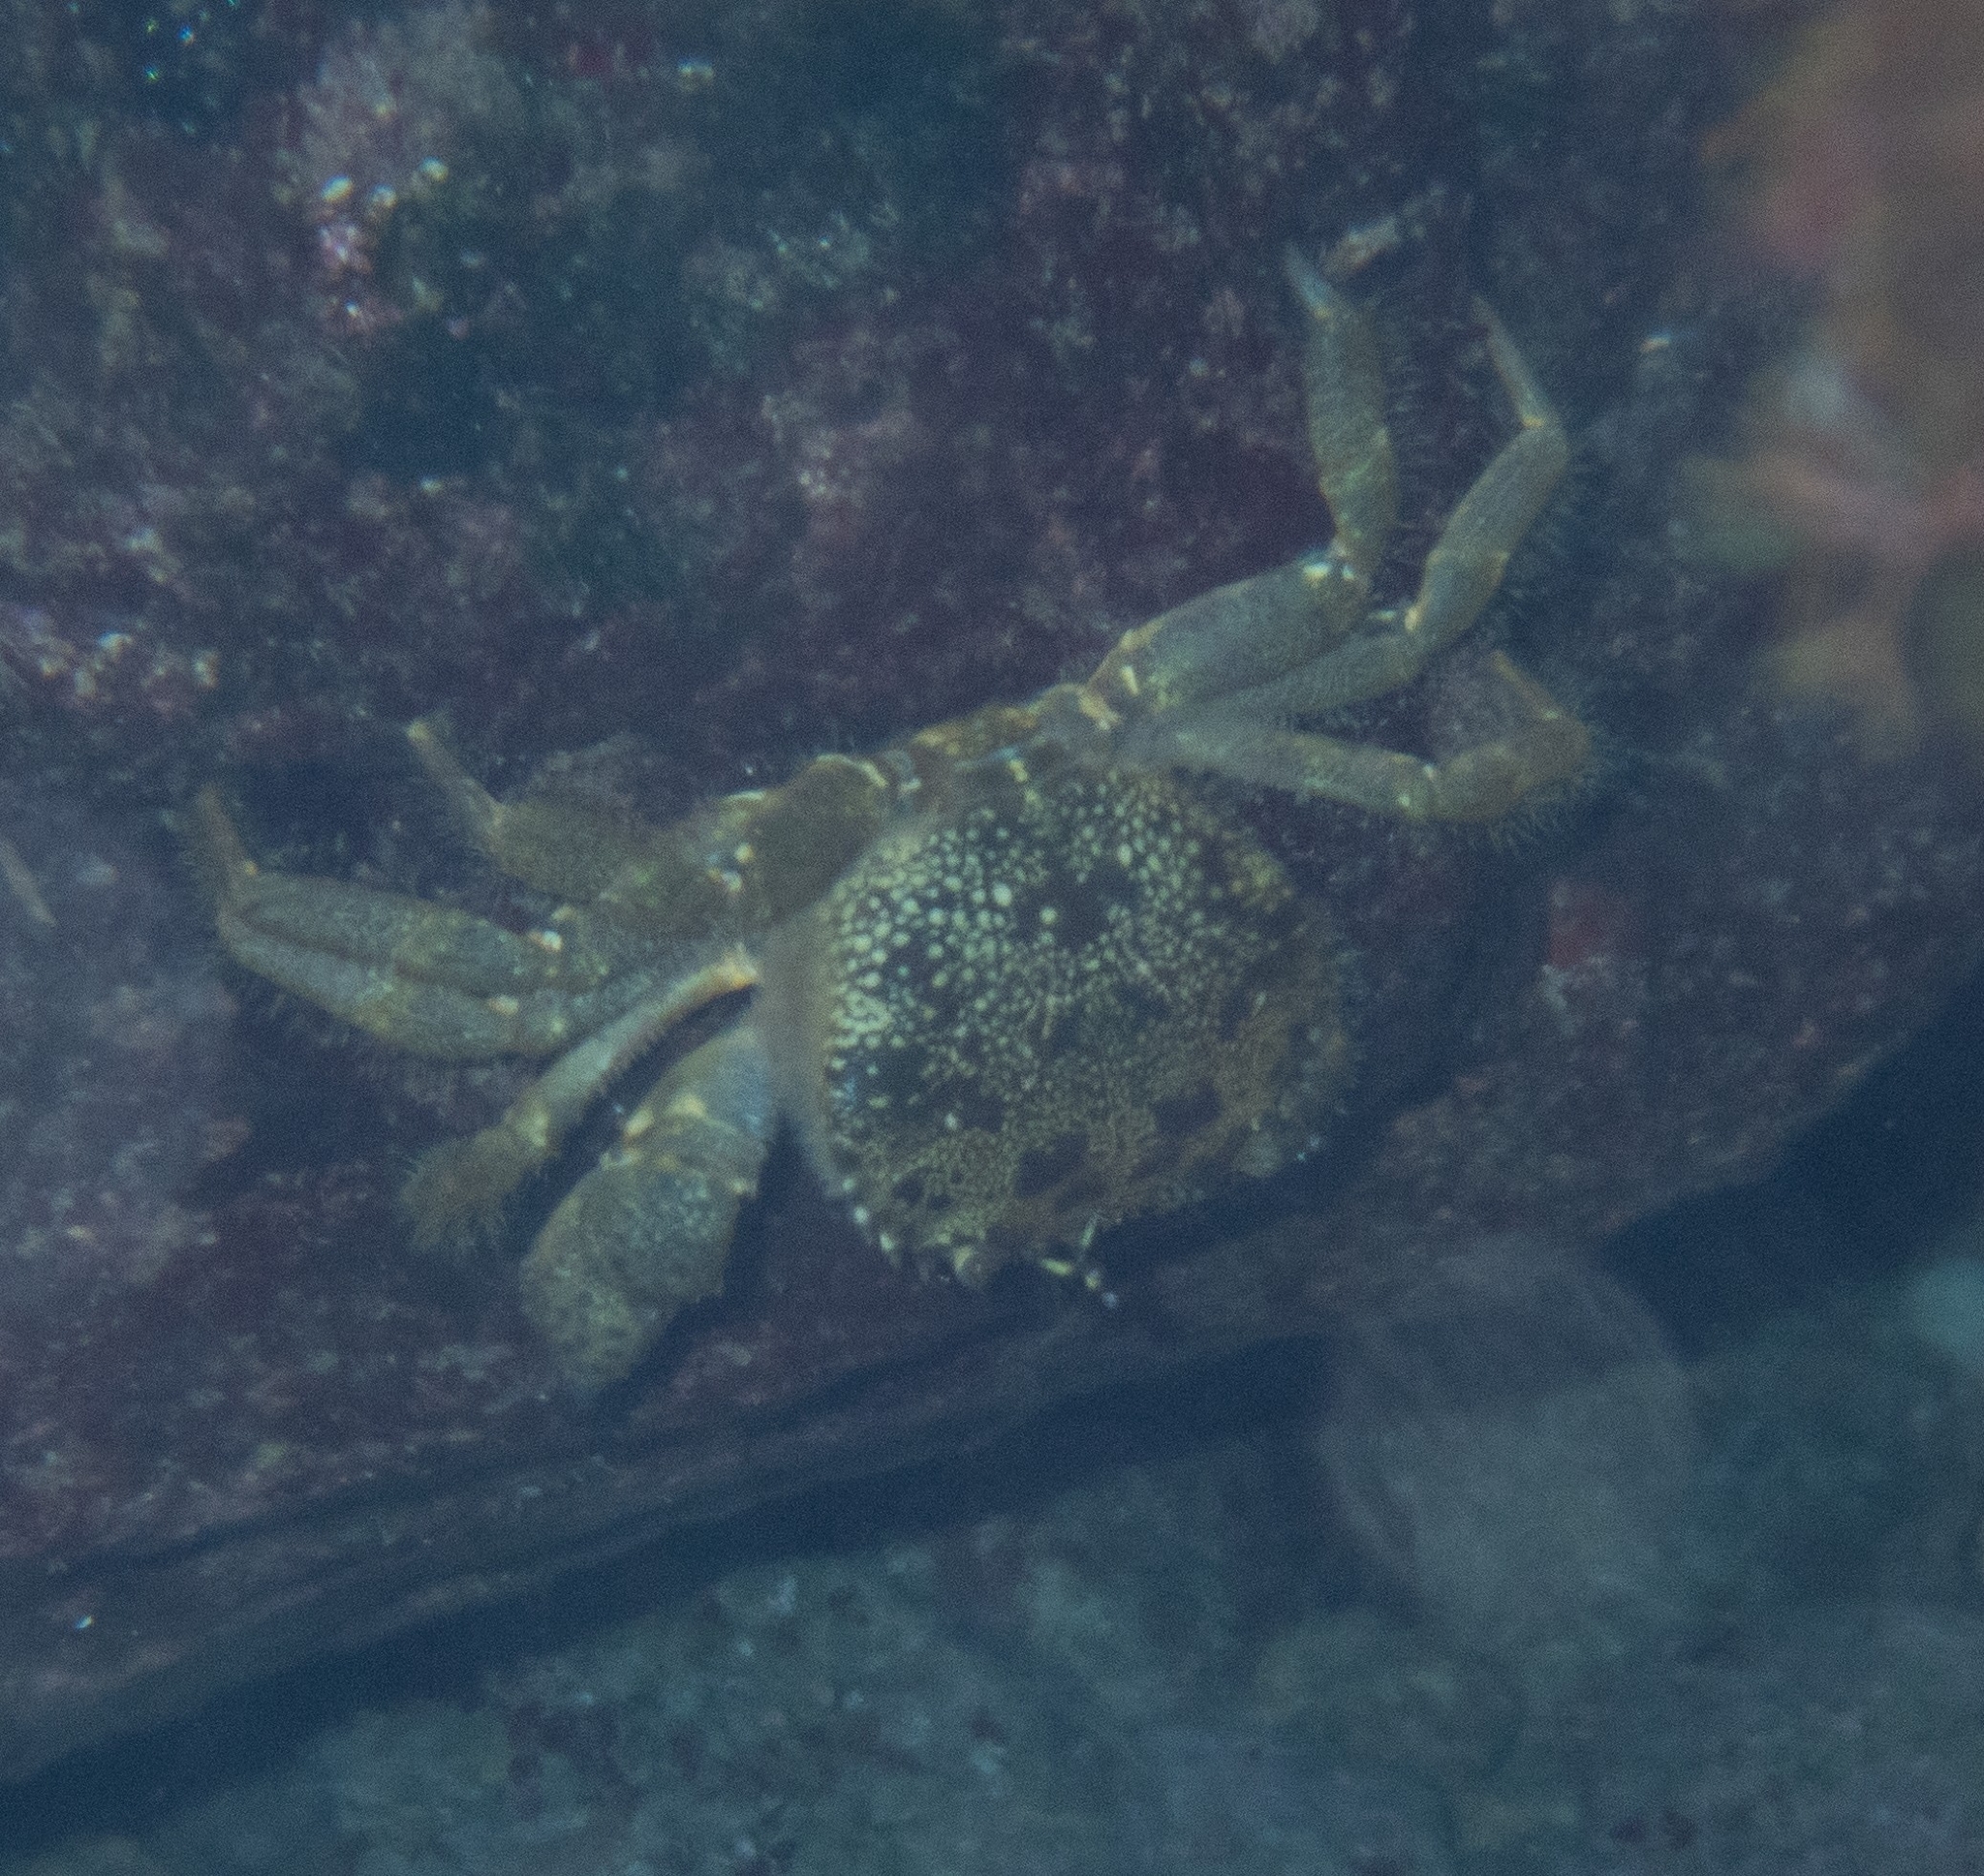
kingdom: Animalia
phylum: Arthropoda
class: Malacostraca
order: Decapoda
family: Eriphiidae
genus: Eriphia
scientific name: Eriphia verrucosa
